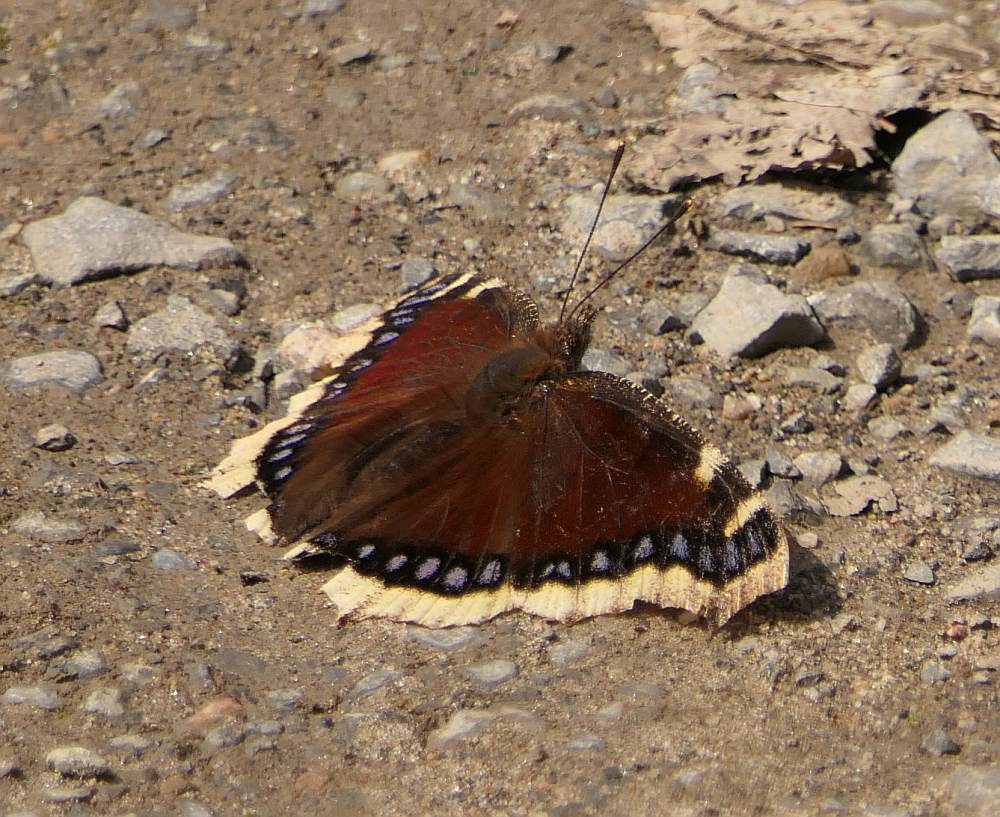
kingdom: Animalia
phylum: Arthropoda
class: Insecta
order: Lepidoptera
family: Nymphalidae
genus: Nymphalis
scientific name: Nymphalis antiopa
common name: Camberwell beauty
